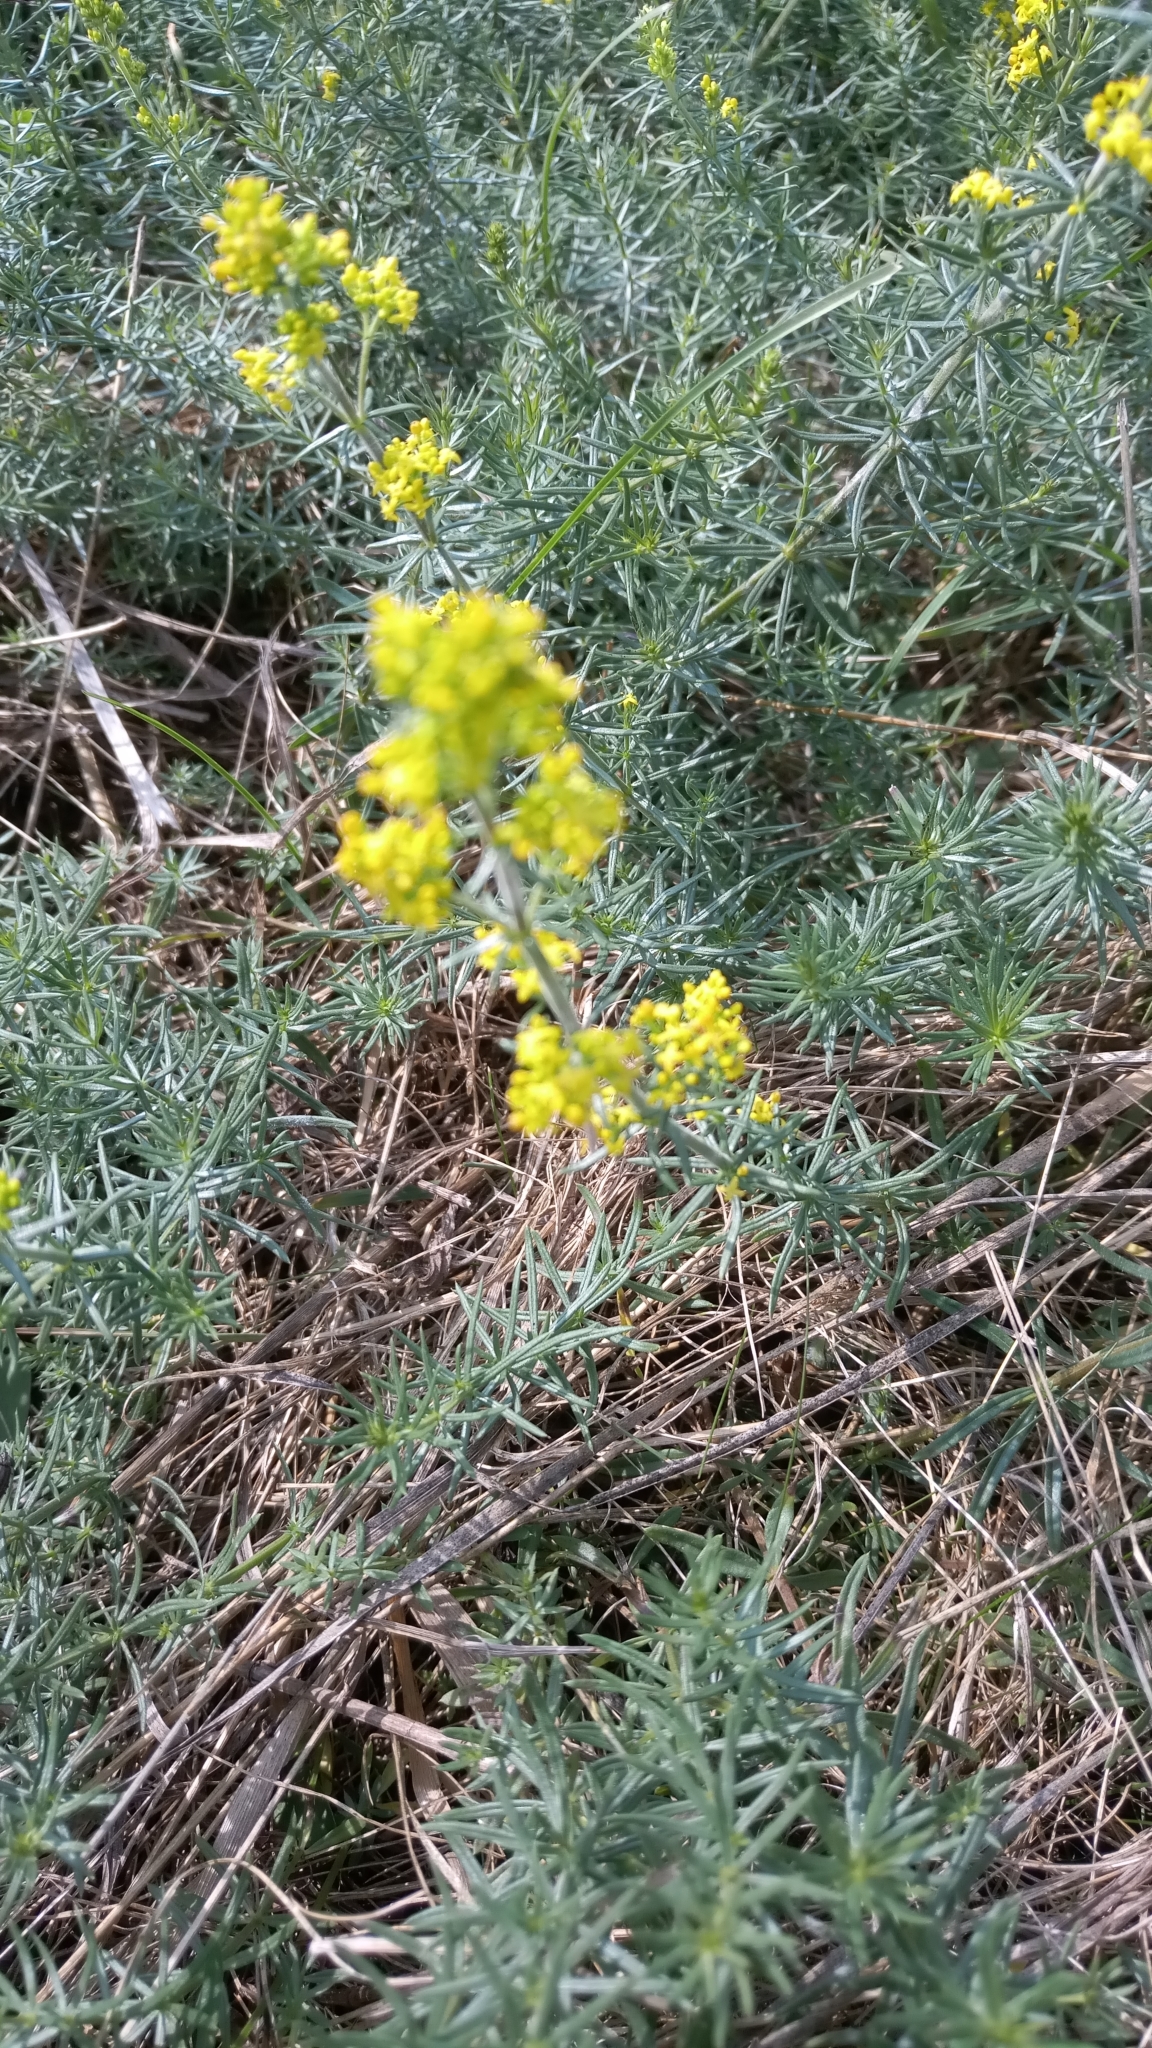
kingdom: Plantae
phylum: Tracheophyta
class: Magnoliopsida
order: Gentianales
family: Rubiaceae
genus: Galium
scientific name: Galium verum
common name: Lady's bedstraw
